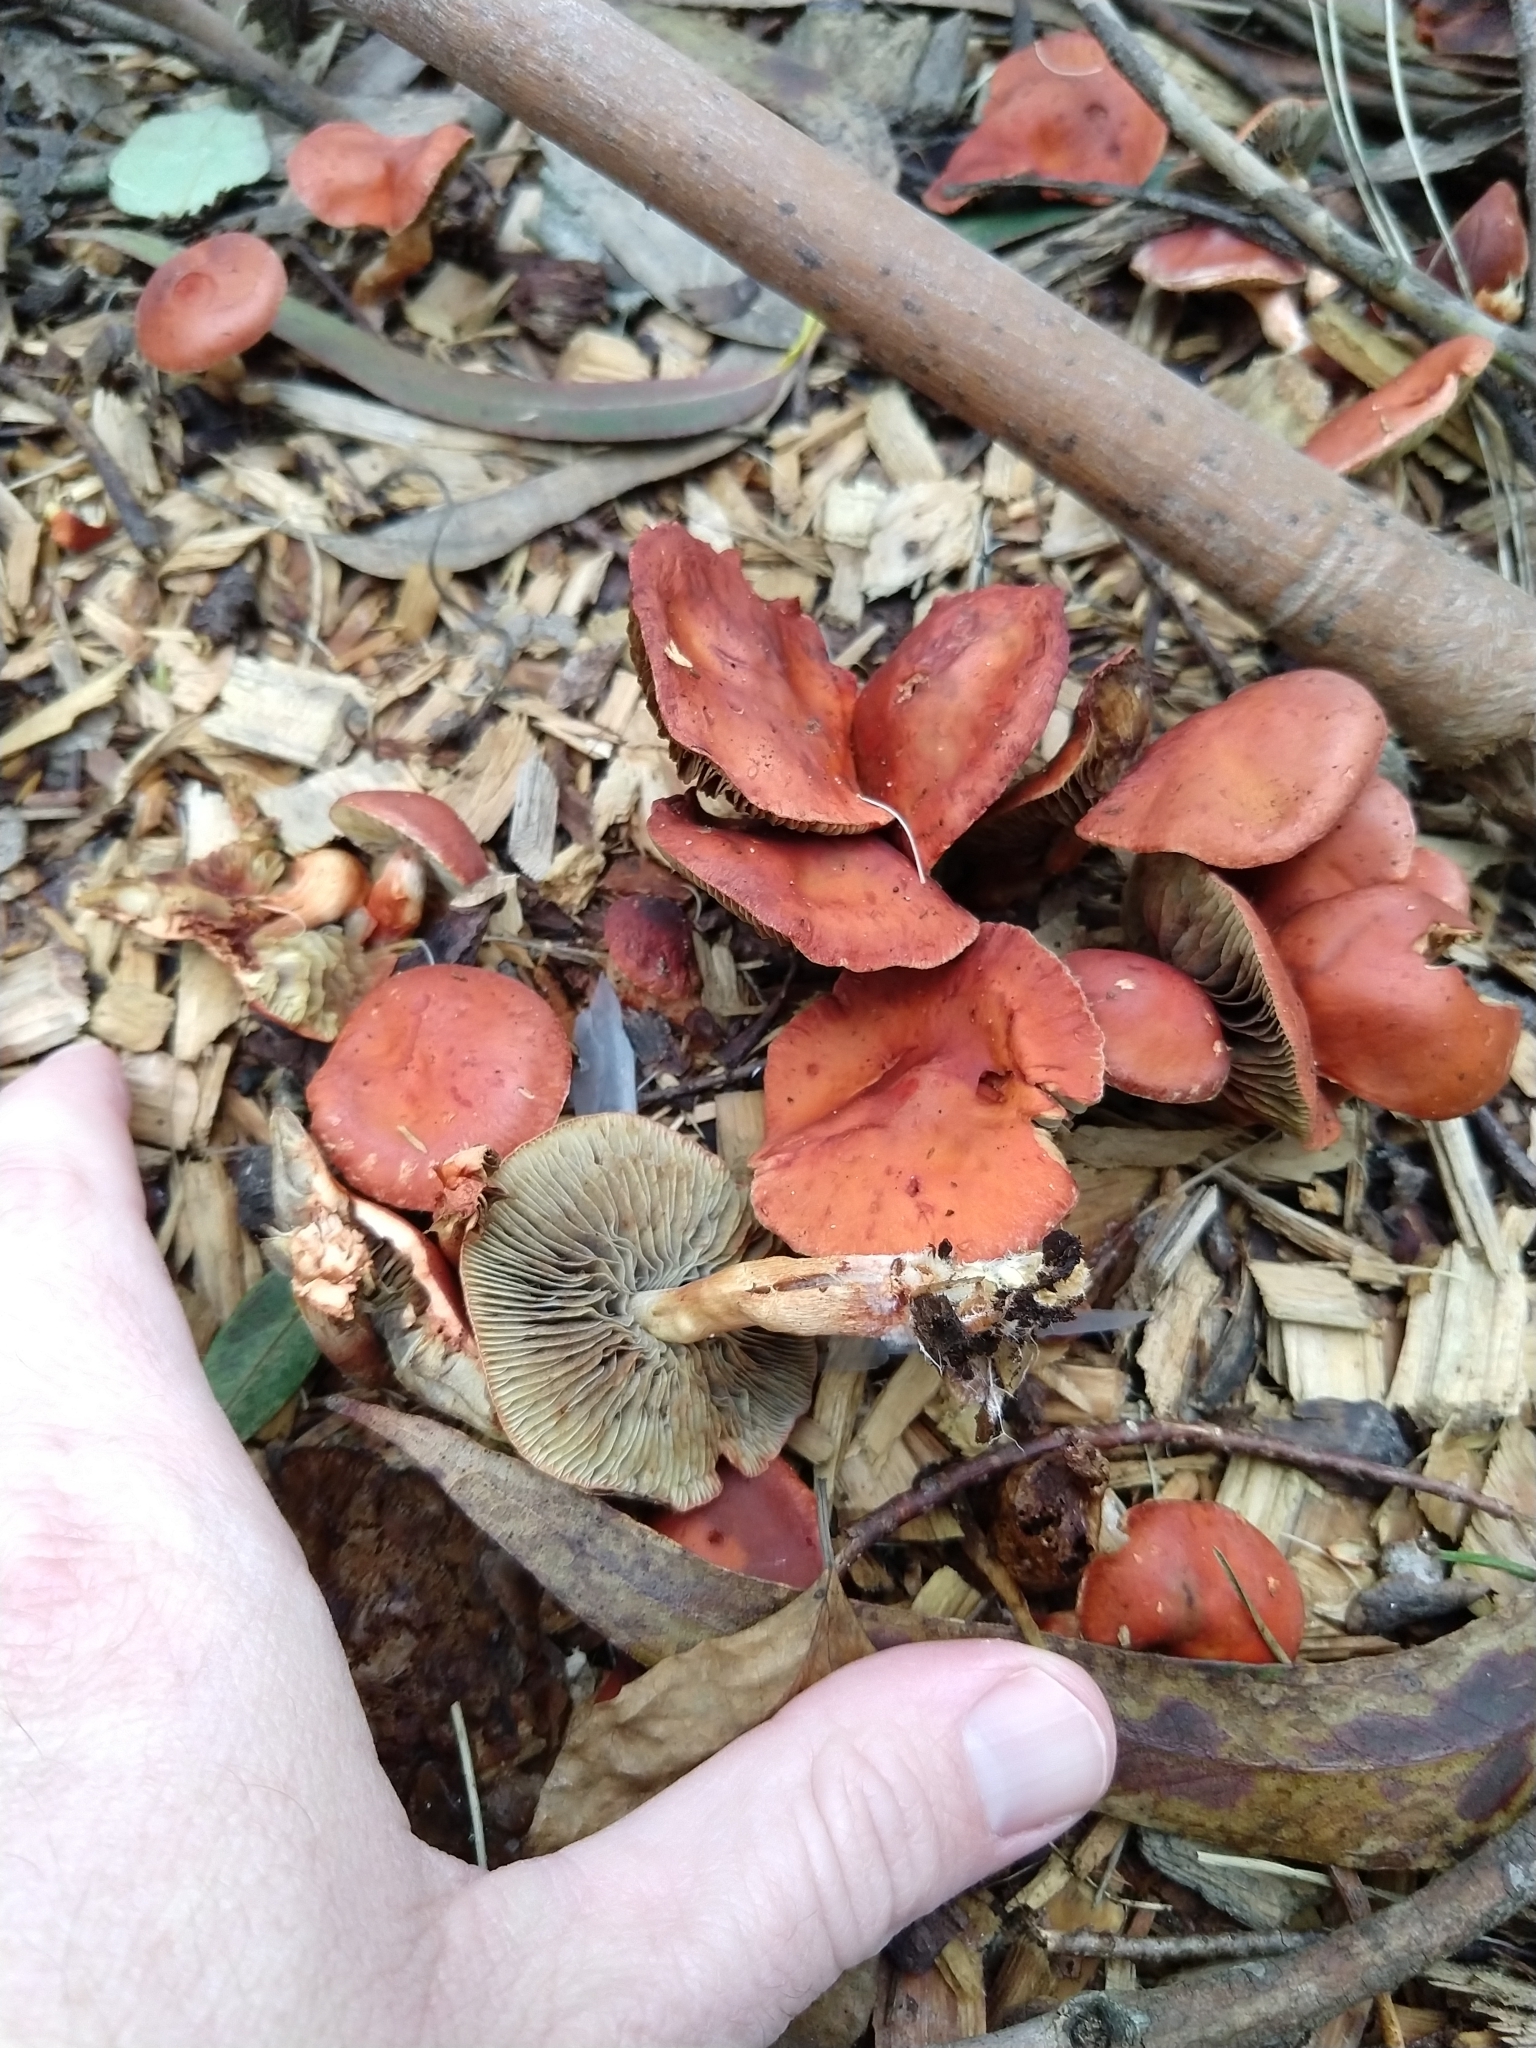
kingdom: Fungi
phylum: Basidiomycota
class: Agaricomycetes
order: Agaricales
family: Strophariaceae
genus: Leratiomyces
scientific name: Leratiomyces ceres
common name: Redlead roundhead
